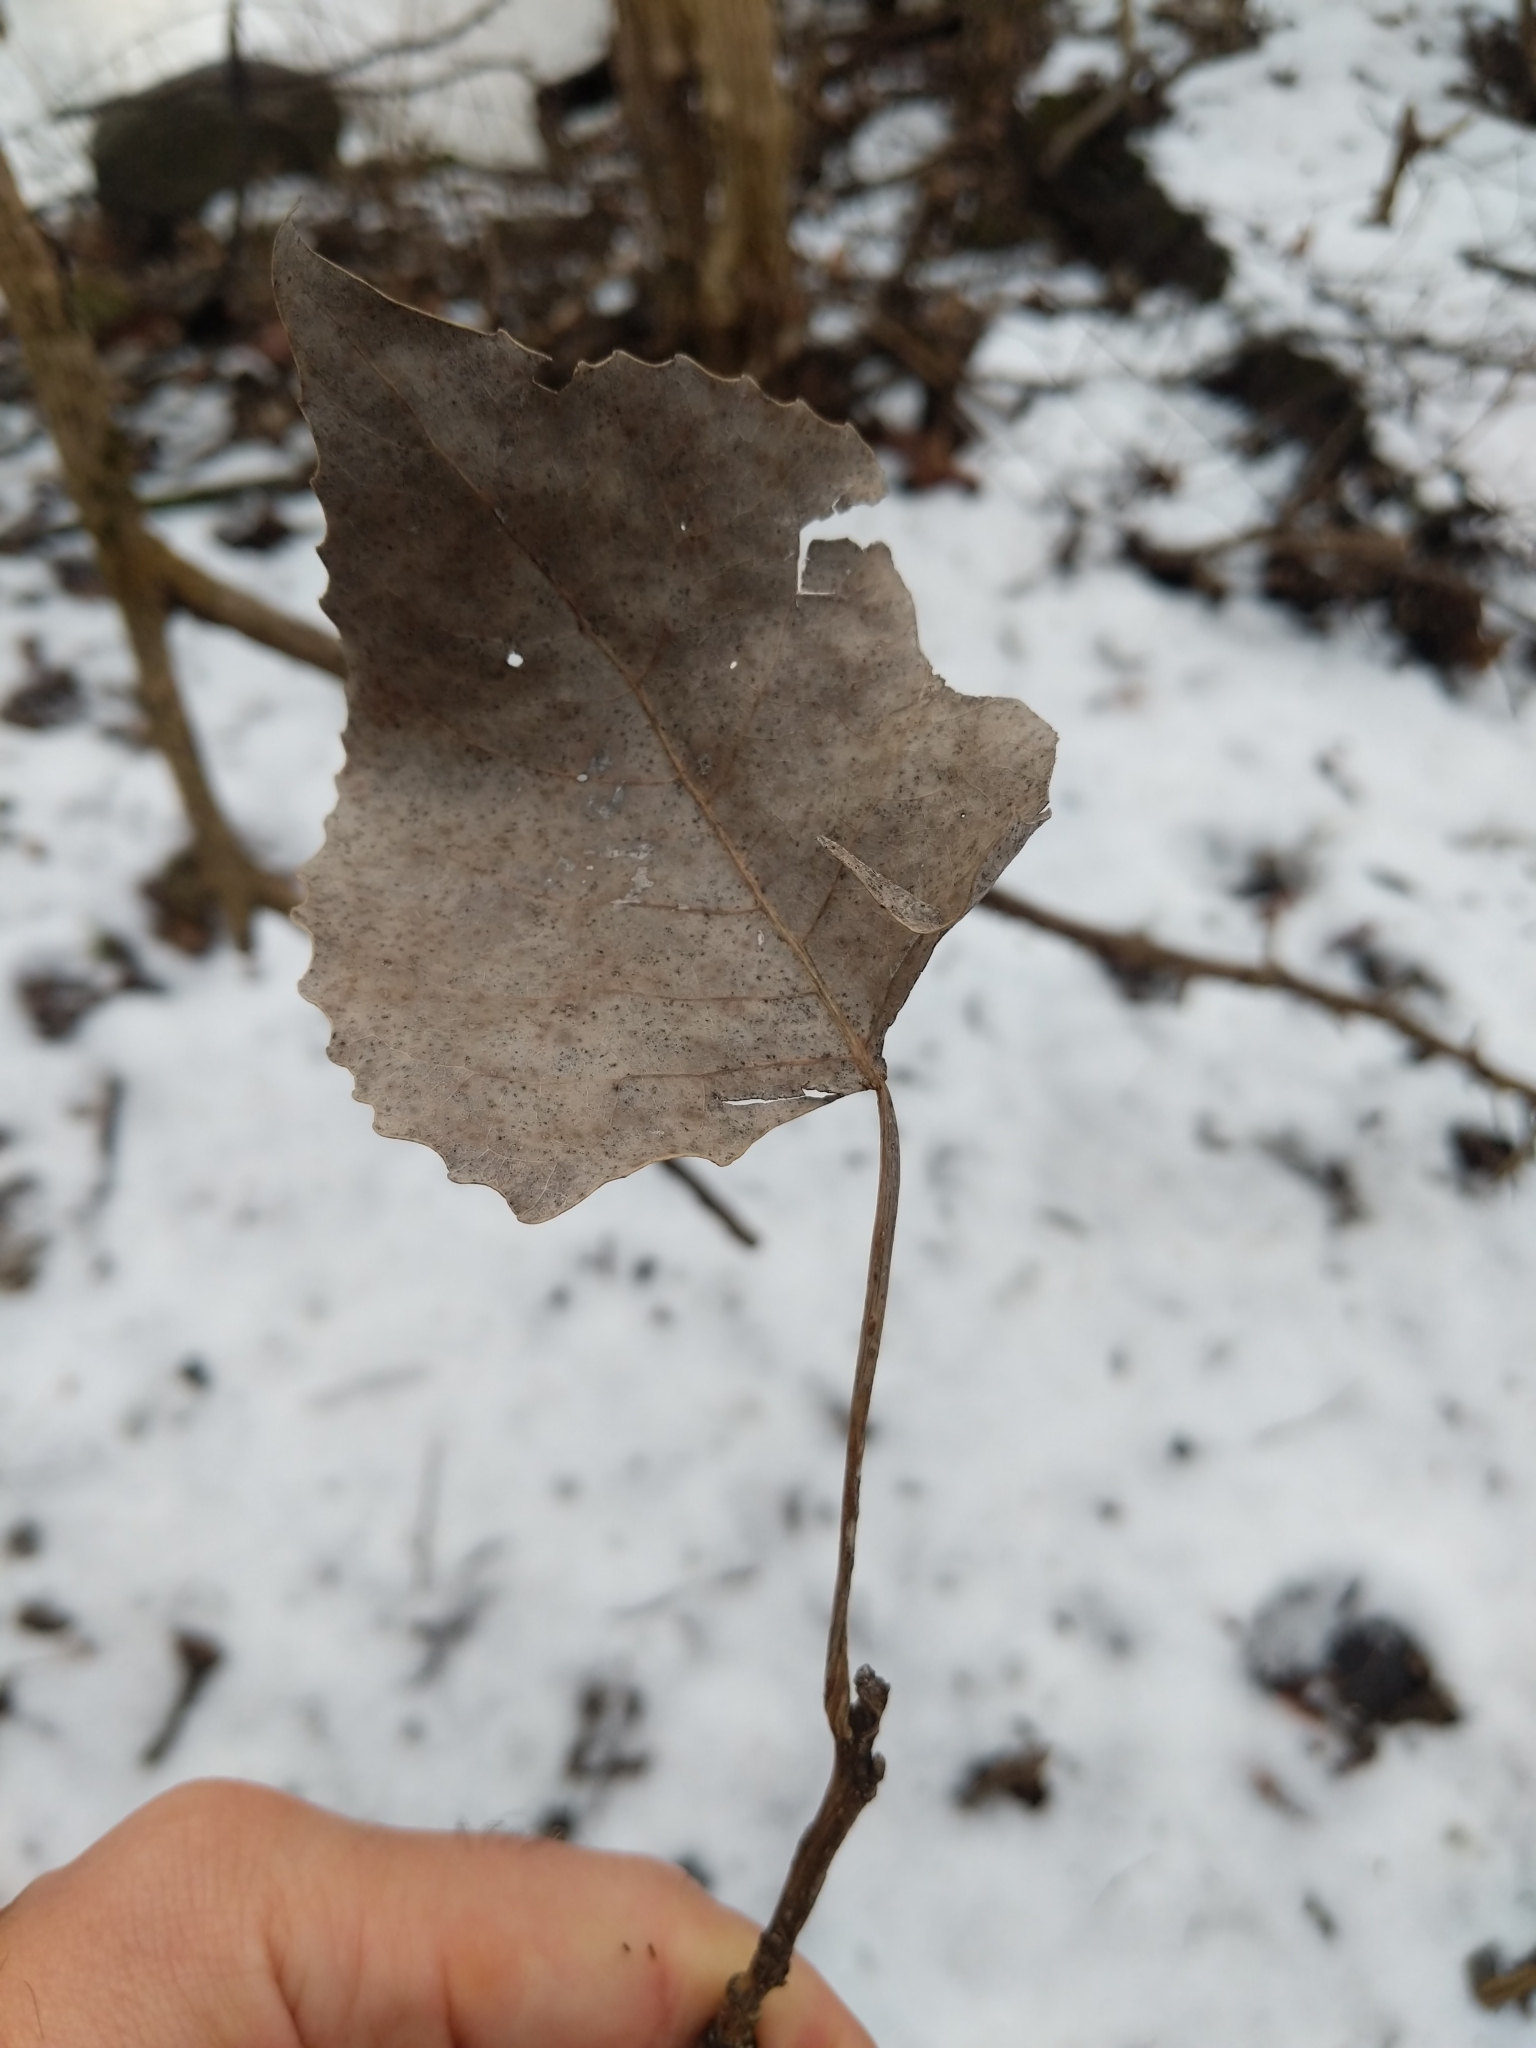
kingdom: Plantae
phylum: Tracheophyta
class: Magnoliopsida
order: Malpighiales
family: Salicaceae
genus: Populus
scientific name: Populus deltoides
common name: Eastern cottonwood
